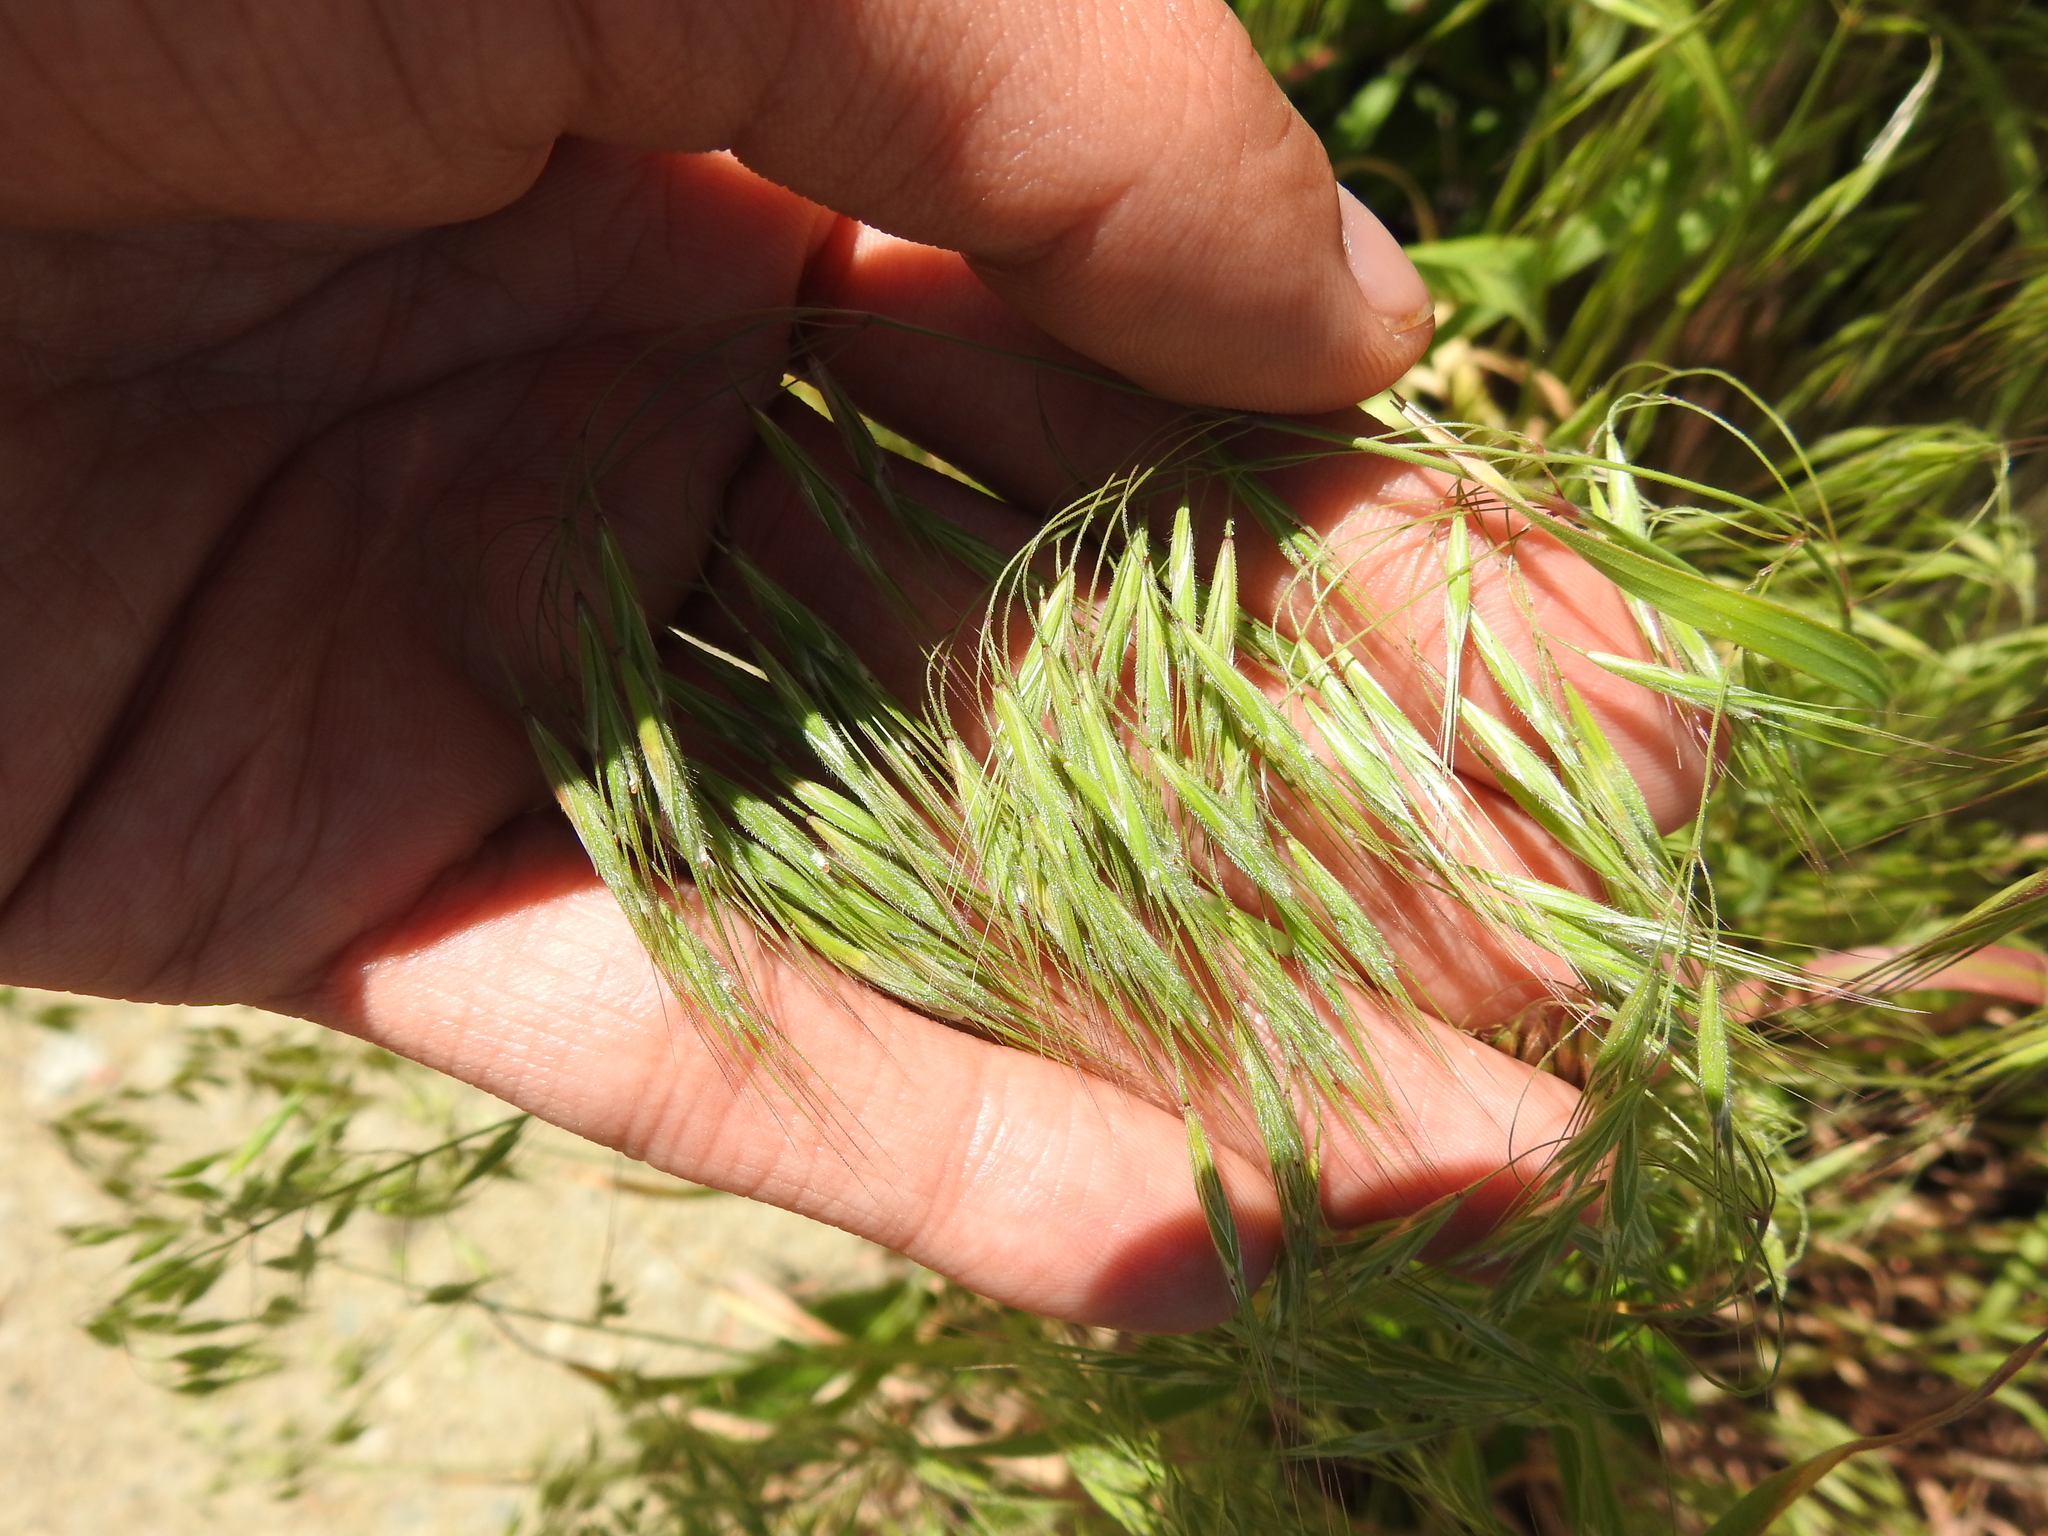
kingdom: Plantae
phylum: Tracheophyta
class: Liliopsida
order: Poales
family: Poaceae
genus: Bromus
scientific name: Bromus tectorum
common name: Cheatgrass
